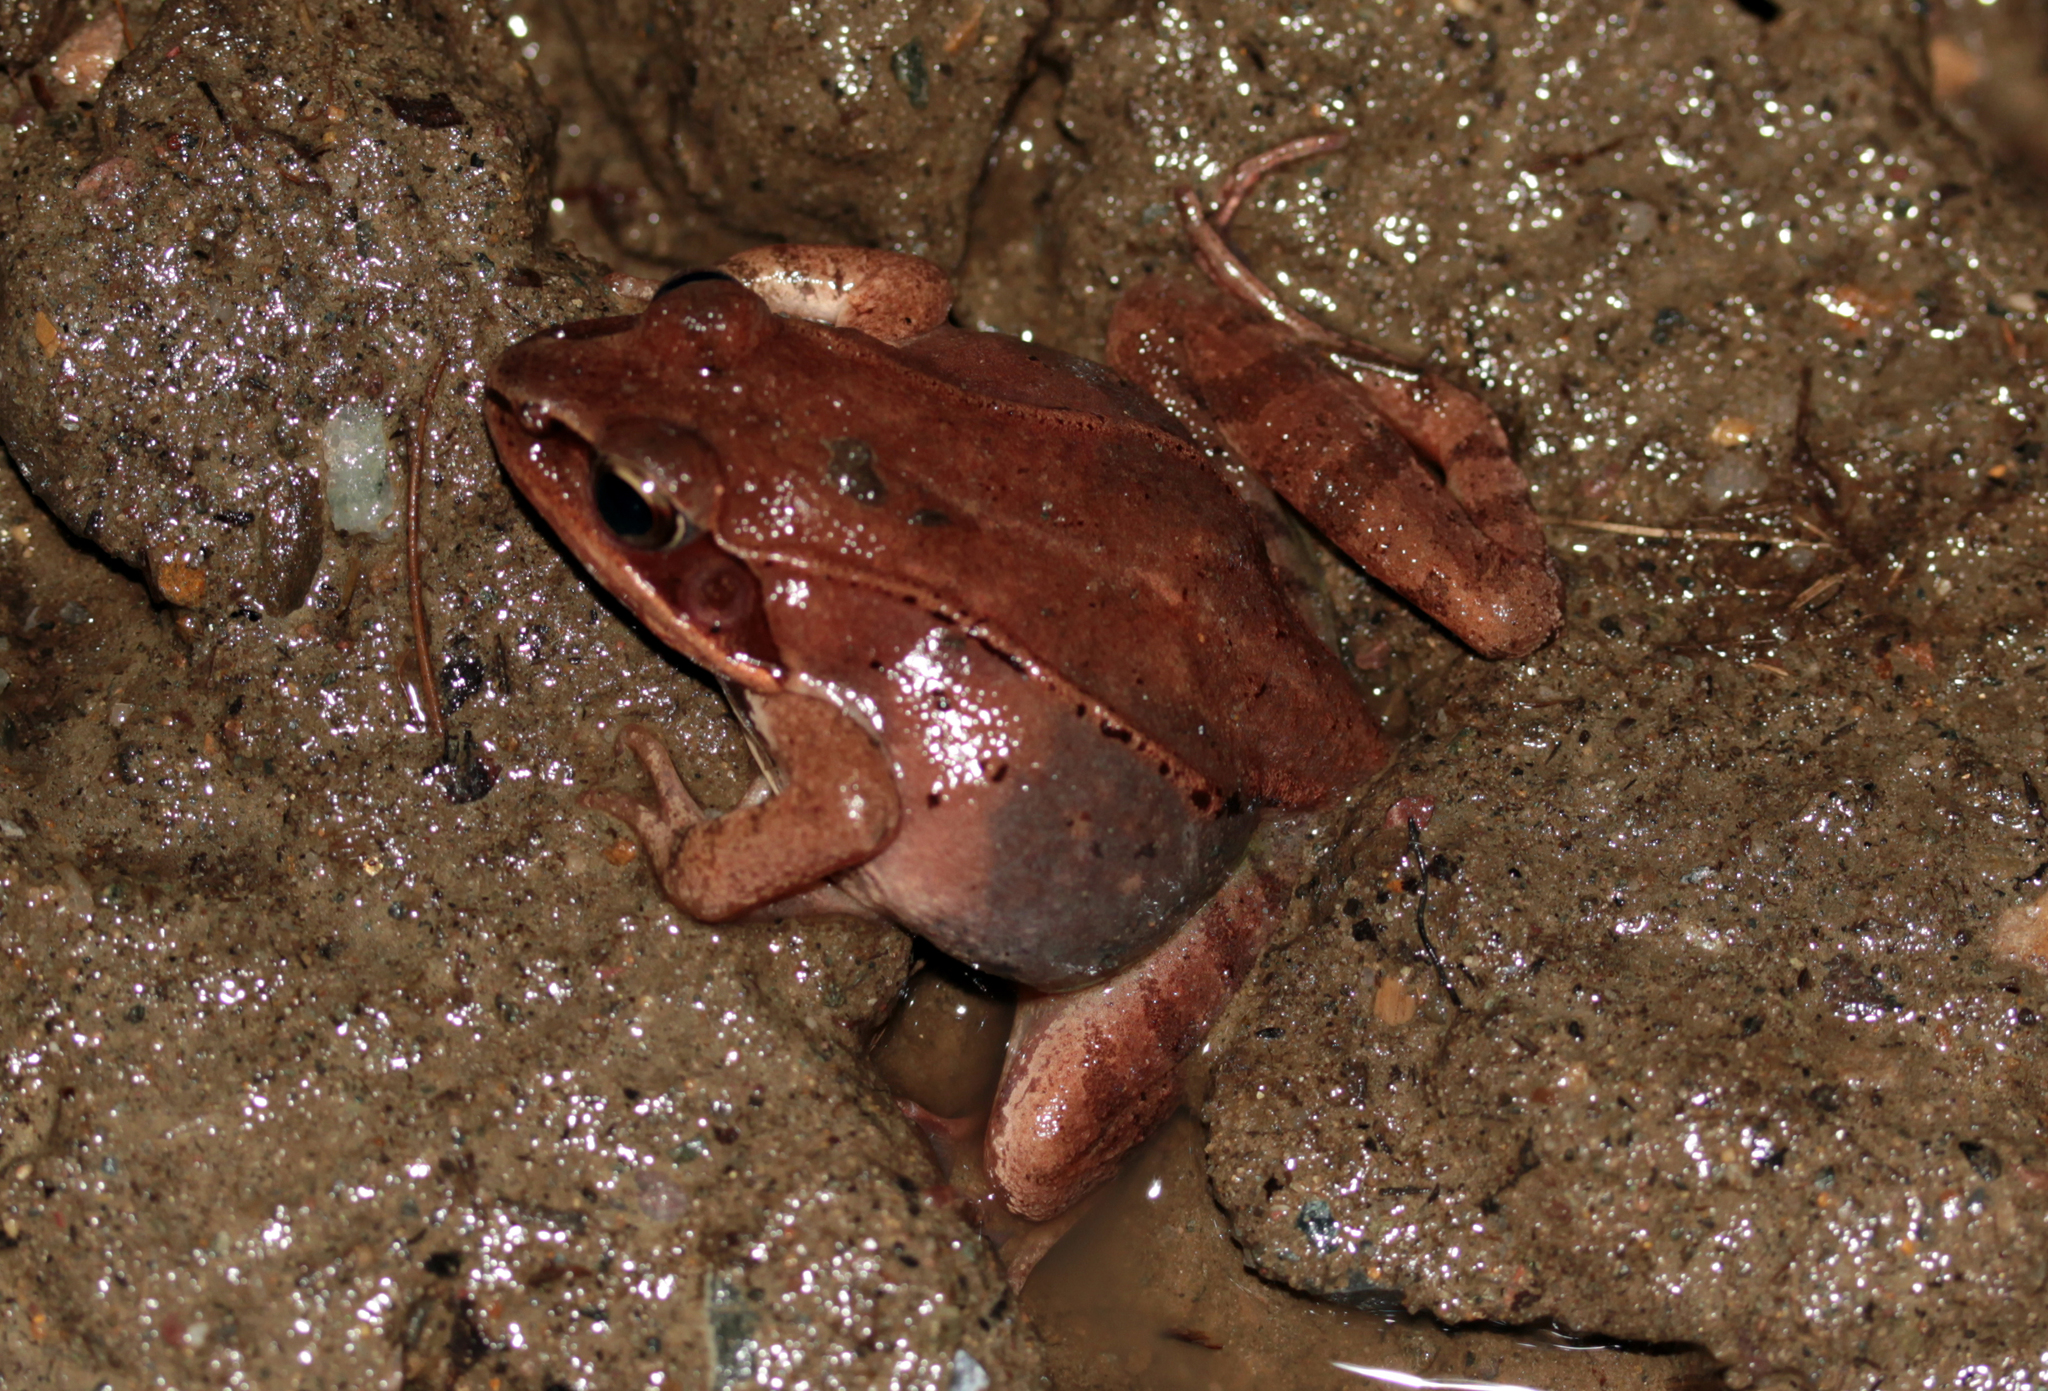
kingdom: Animalia
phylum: Chordata
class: Amphibia
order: Anura
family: Ranidae
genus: Lithobates
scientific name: Lithobates sylvaticus
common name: Wood frog
